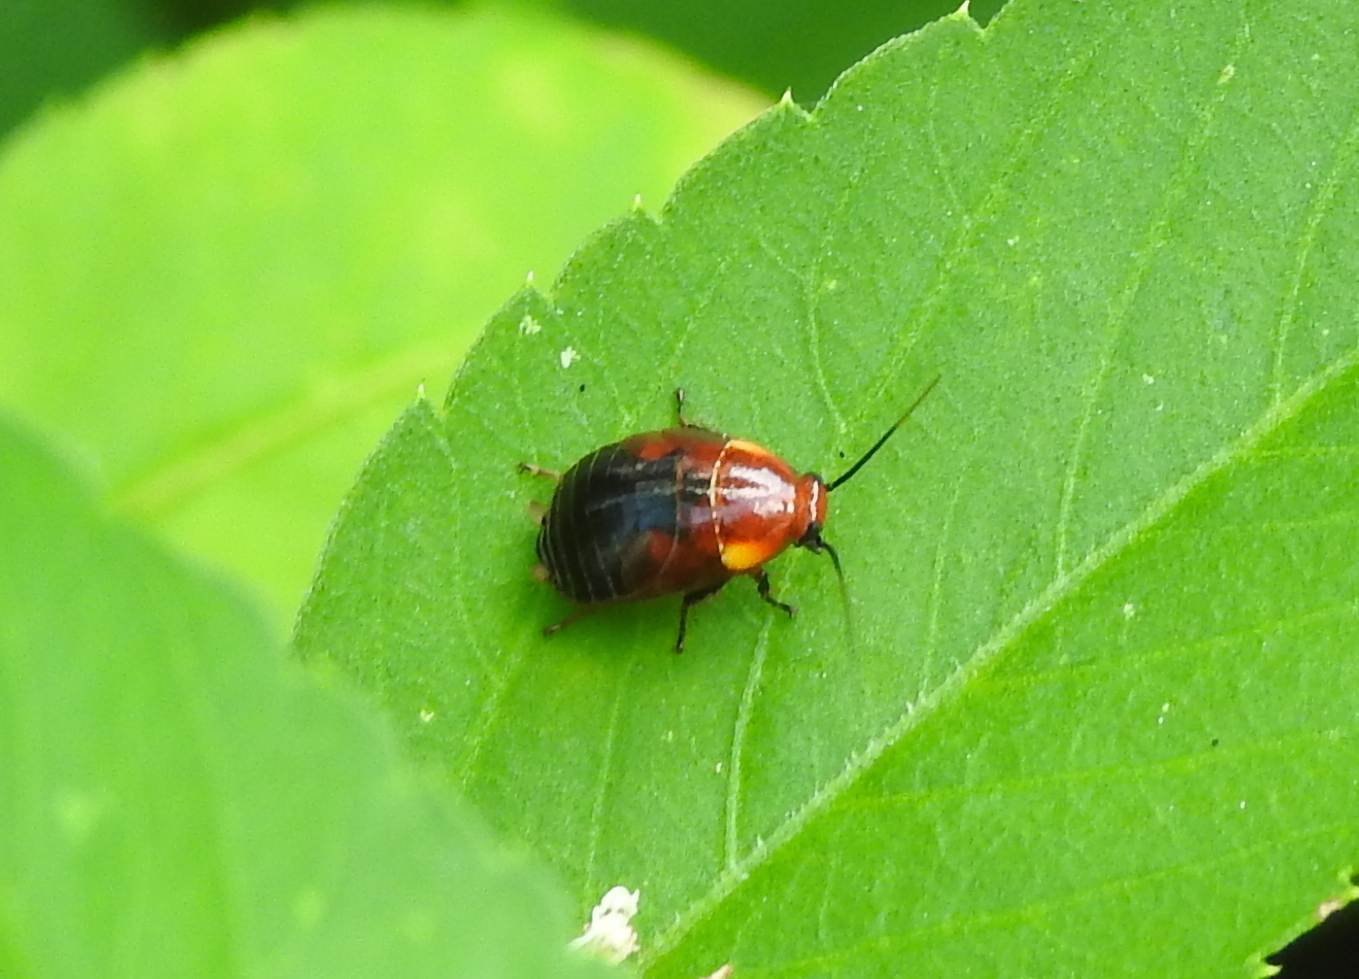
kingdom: Animalia
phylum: Arthropoda
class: Insecta
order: Blattodea
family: Ectobiidae
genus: Hemithyrsocera
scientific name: Hemithyrsocera palliata
